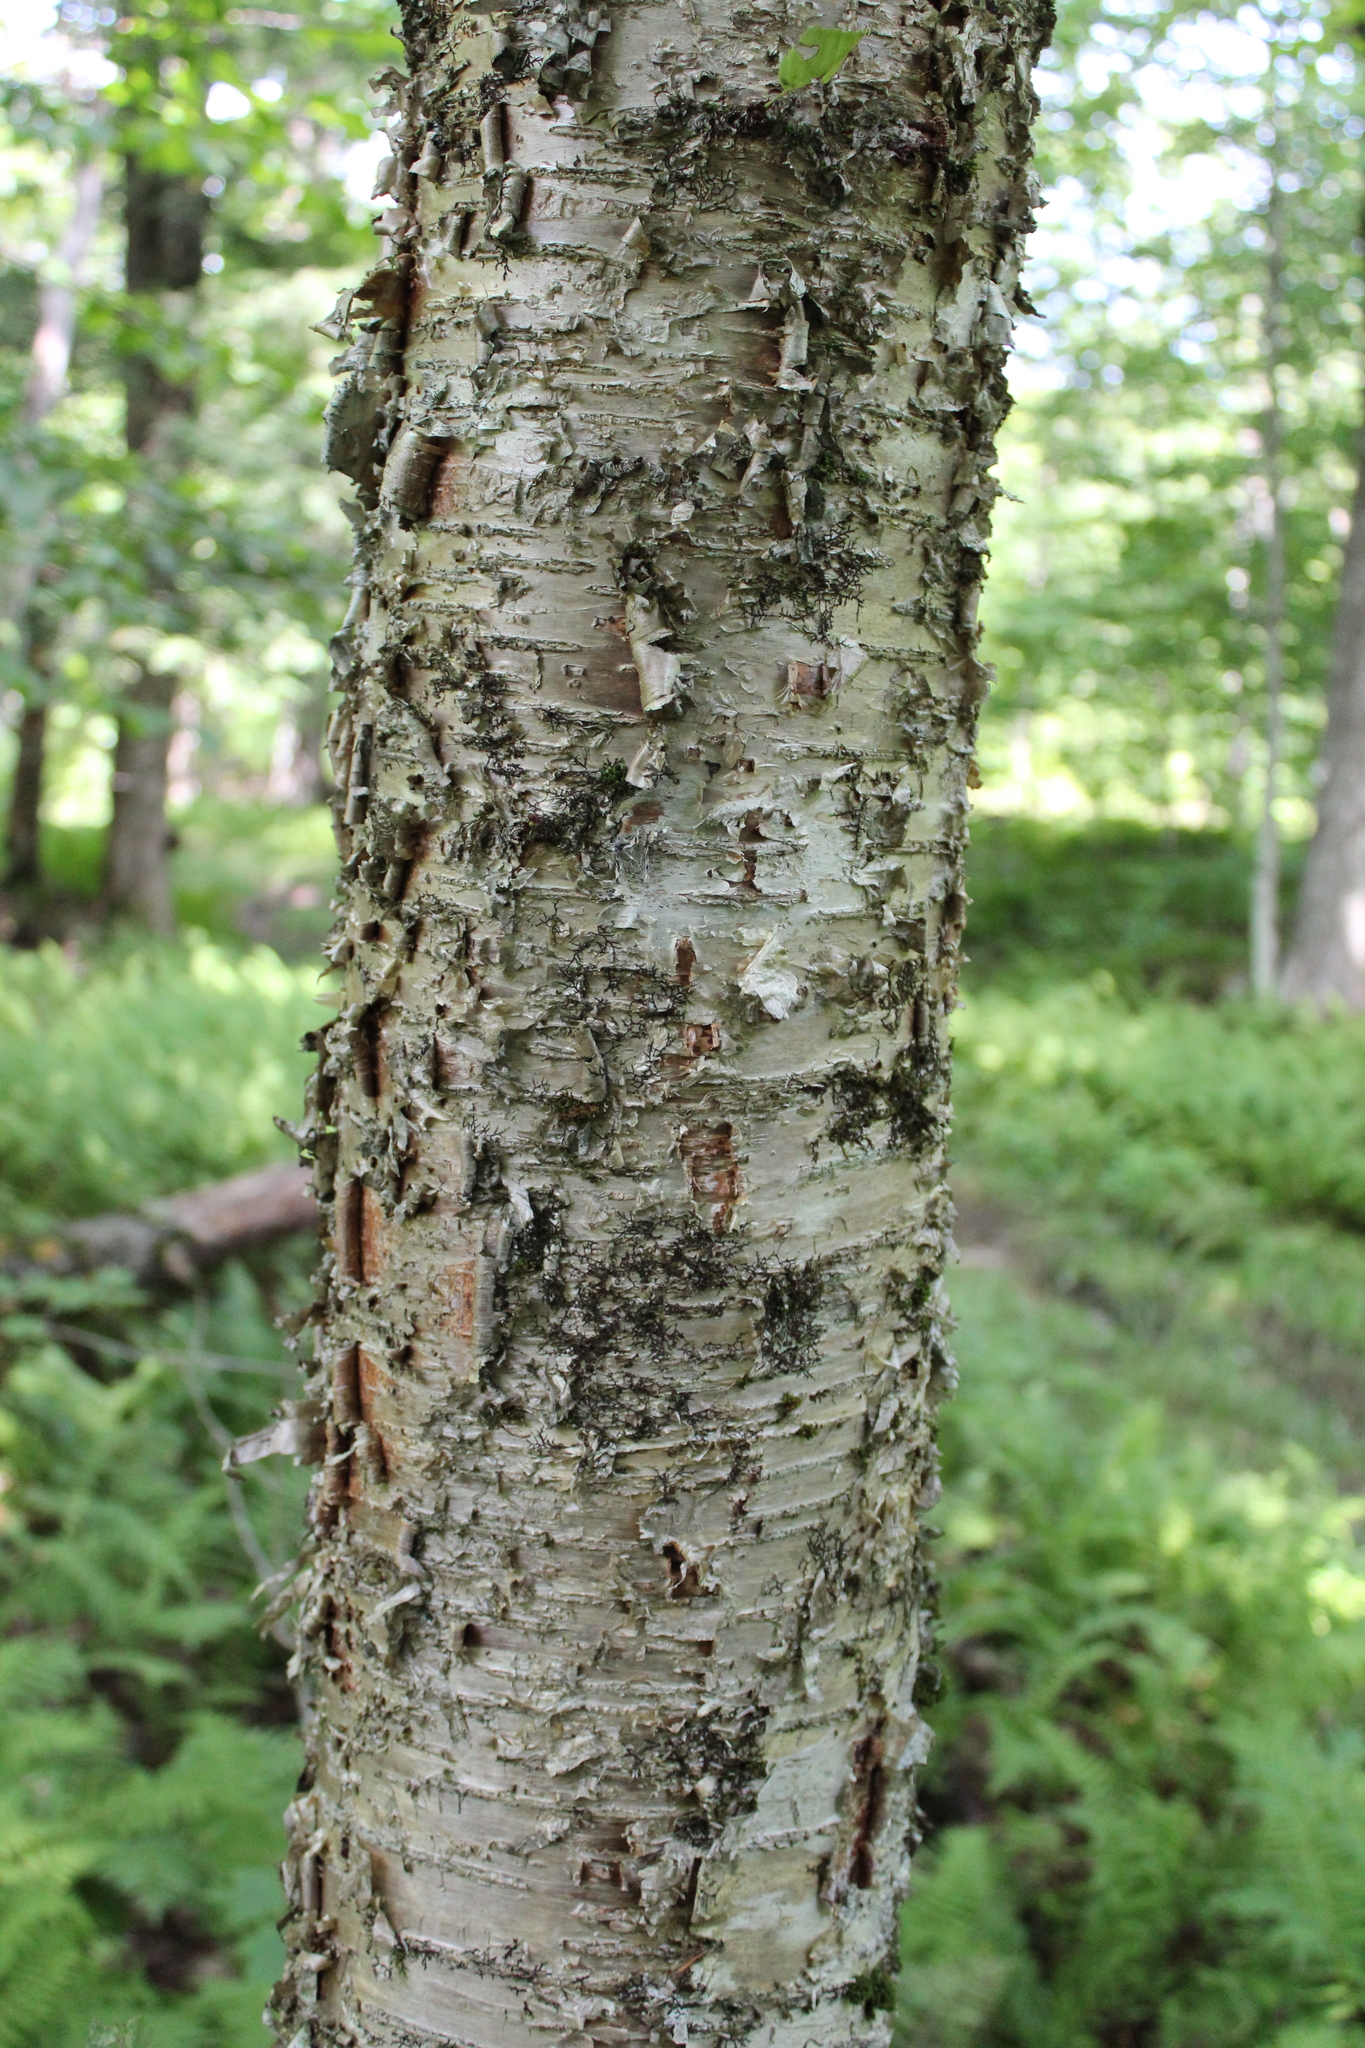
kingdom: Plantae
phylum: Tracheophyta
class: Magnoliopsida
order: Fagales
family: Betulaceae
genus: Betula
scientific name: Betula alleghaniensis
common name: Yellow birch
